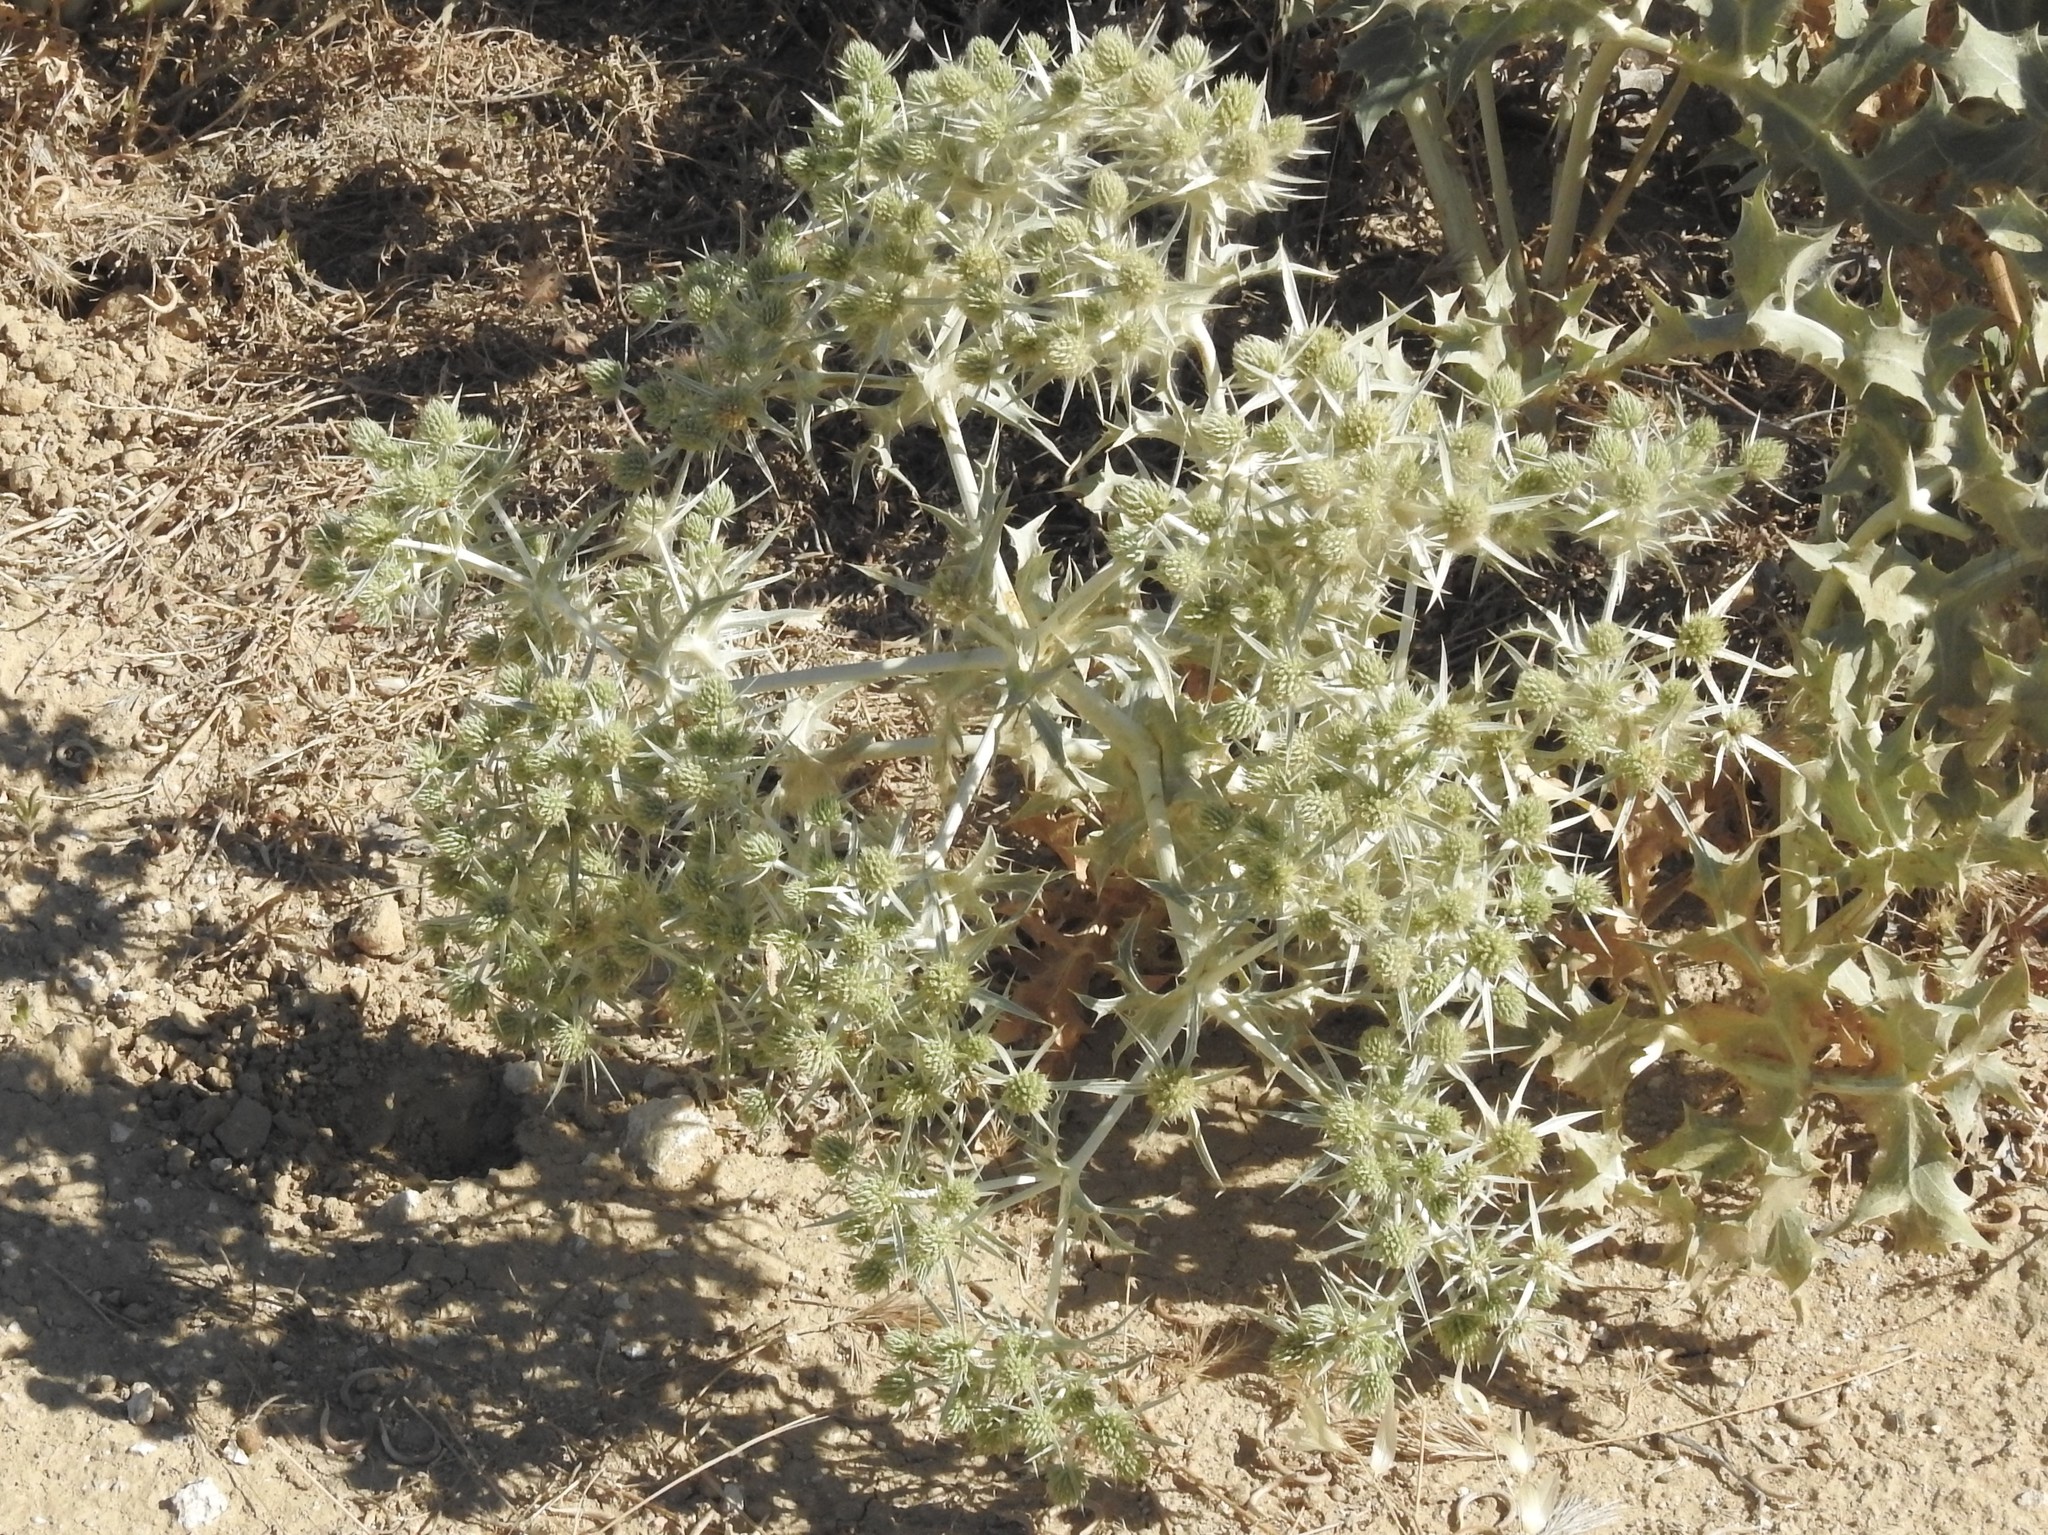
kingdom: Plantae
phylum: Tracheophyta
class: Magnoliopsida
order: Apiales
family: Apiaceae
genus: Eryngium
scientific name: Eryngium campestre
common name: Field eryngo
